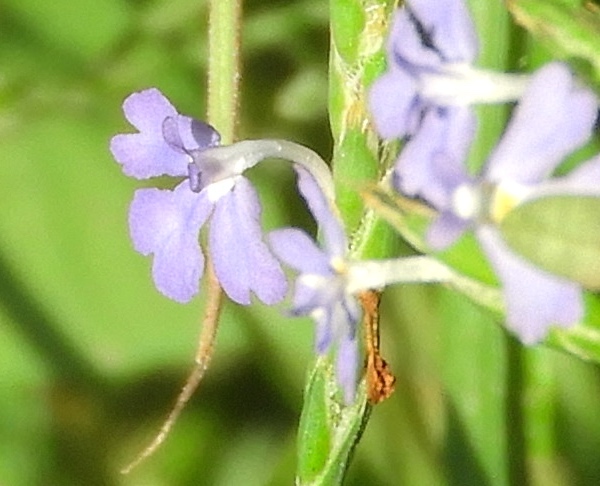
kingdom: Plantae
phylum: Tracheophyta
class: Magnoliopsida
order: Lamiales
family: Acanthaceae
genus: Elytraria
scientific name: Elytraria imbricata
